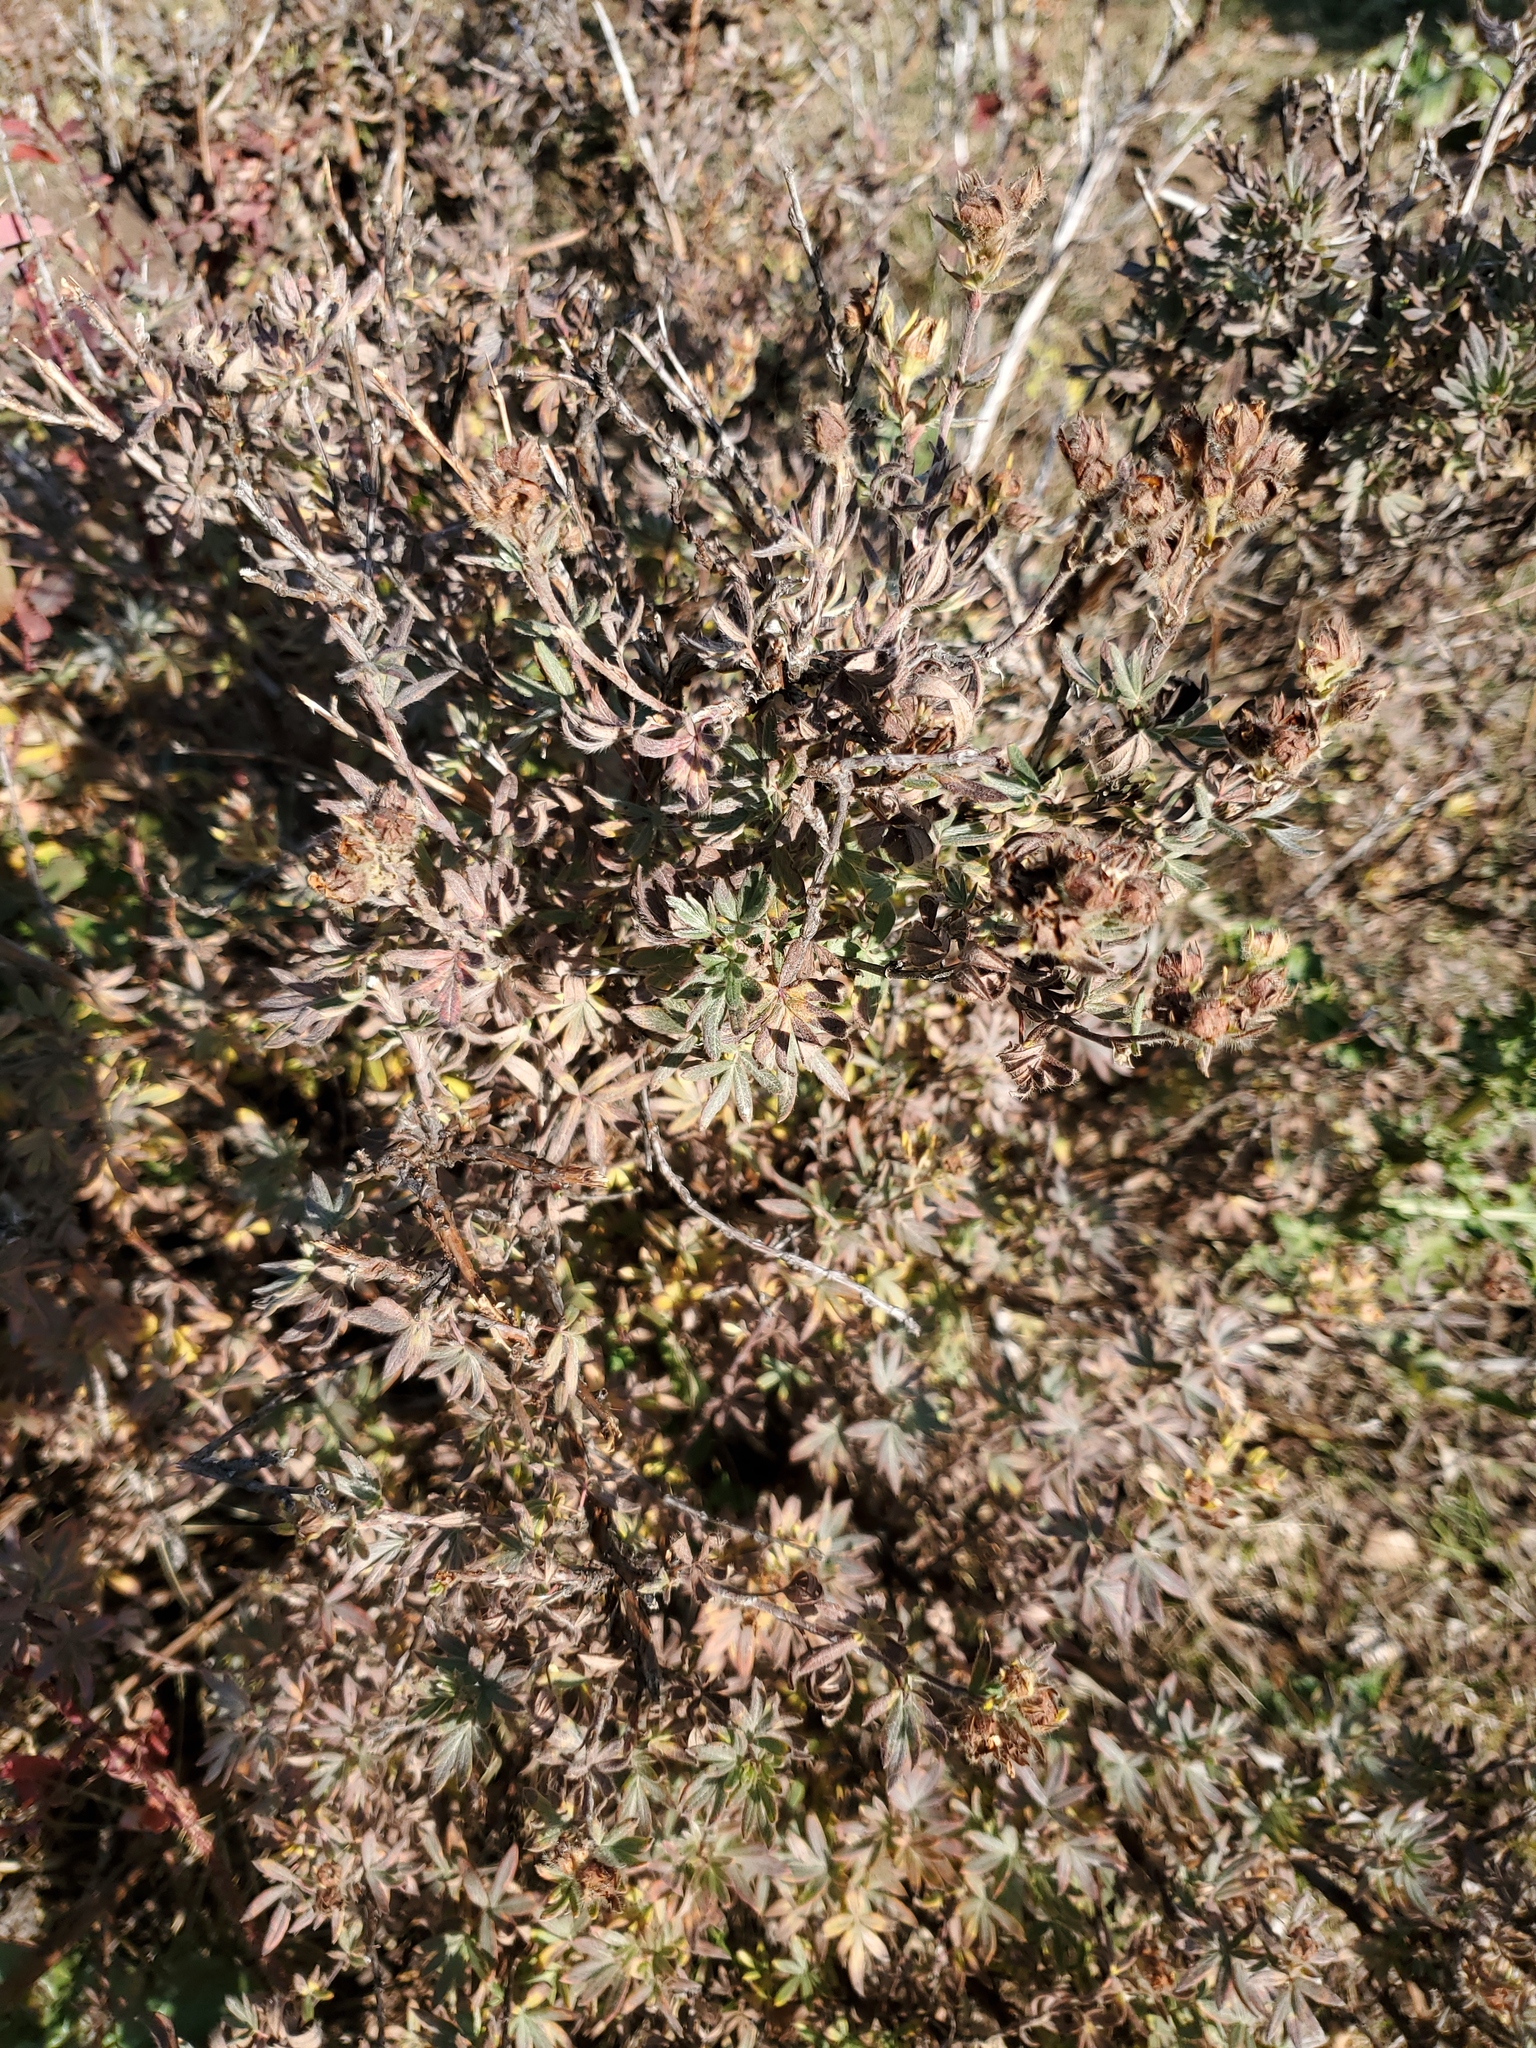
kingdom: Plantae
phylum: Tracheophyta
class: Magnoliopsida
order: Rosales
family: Rosaceae
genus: Dasiphora
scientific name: Dasiphora fruticosa
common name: Shrubby cinquefoil
